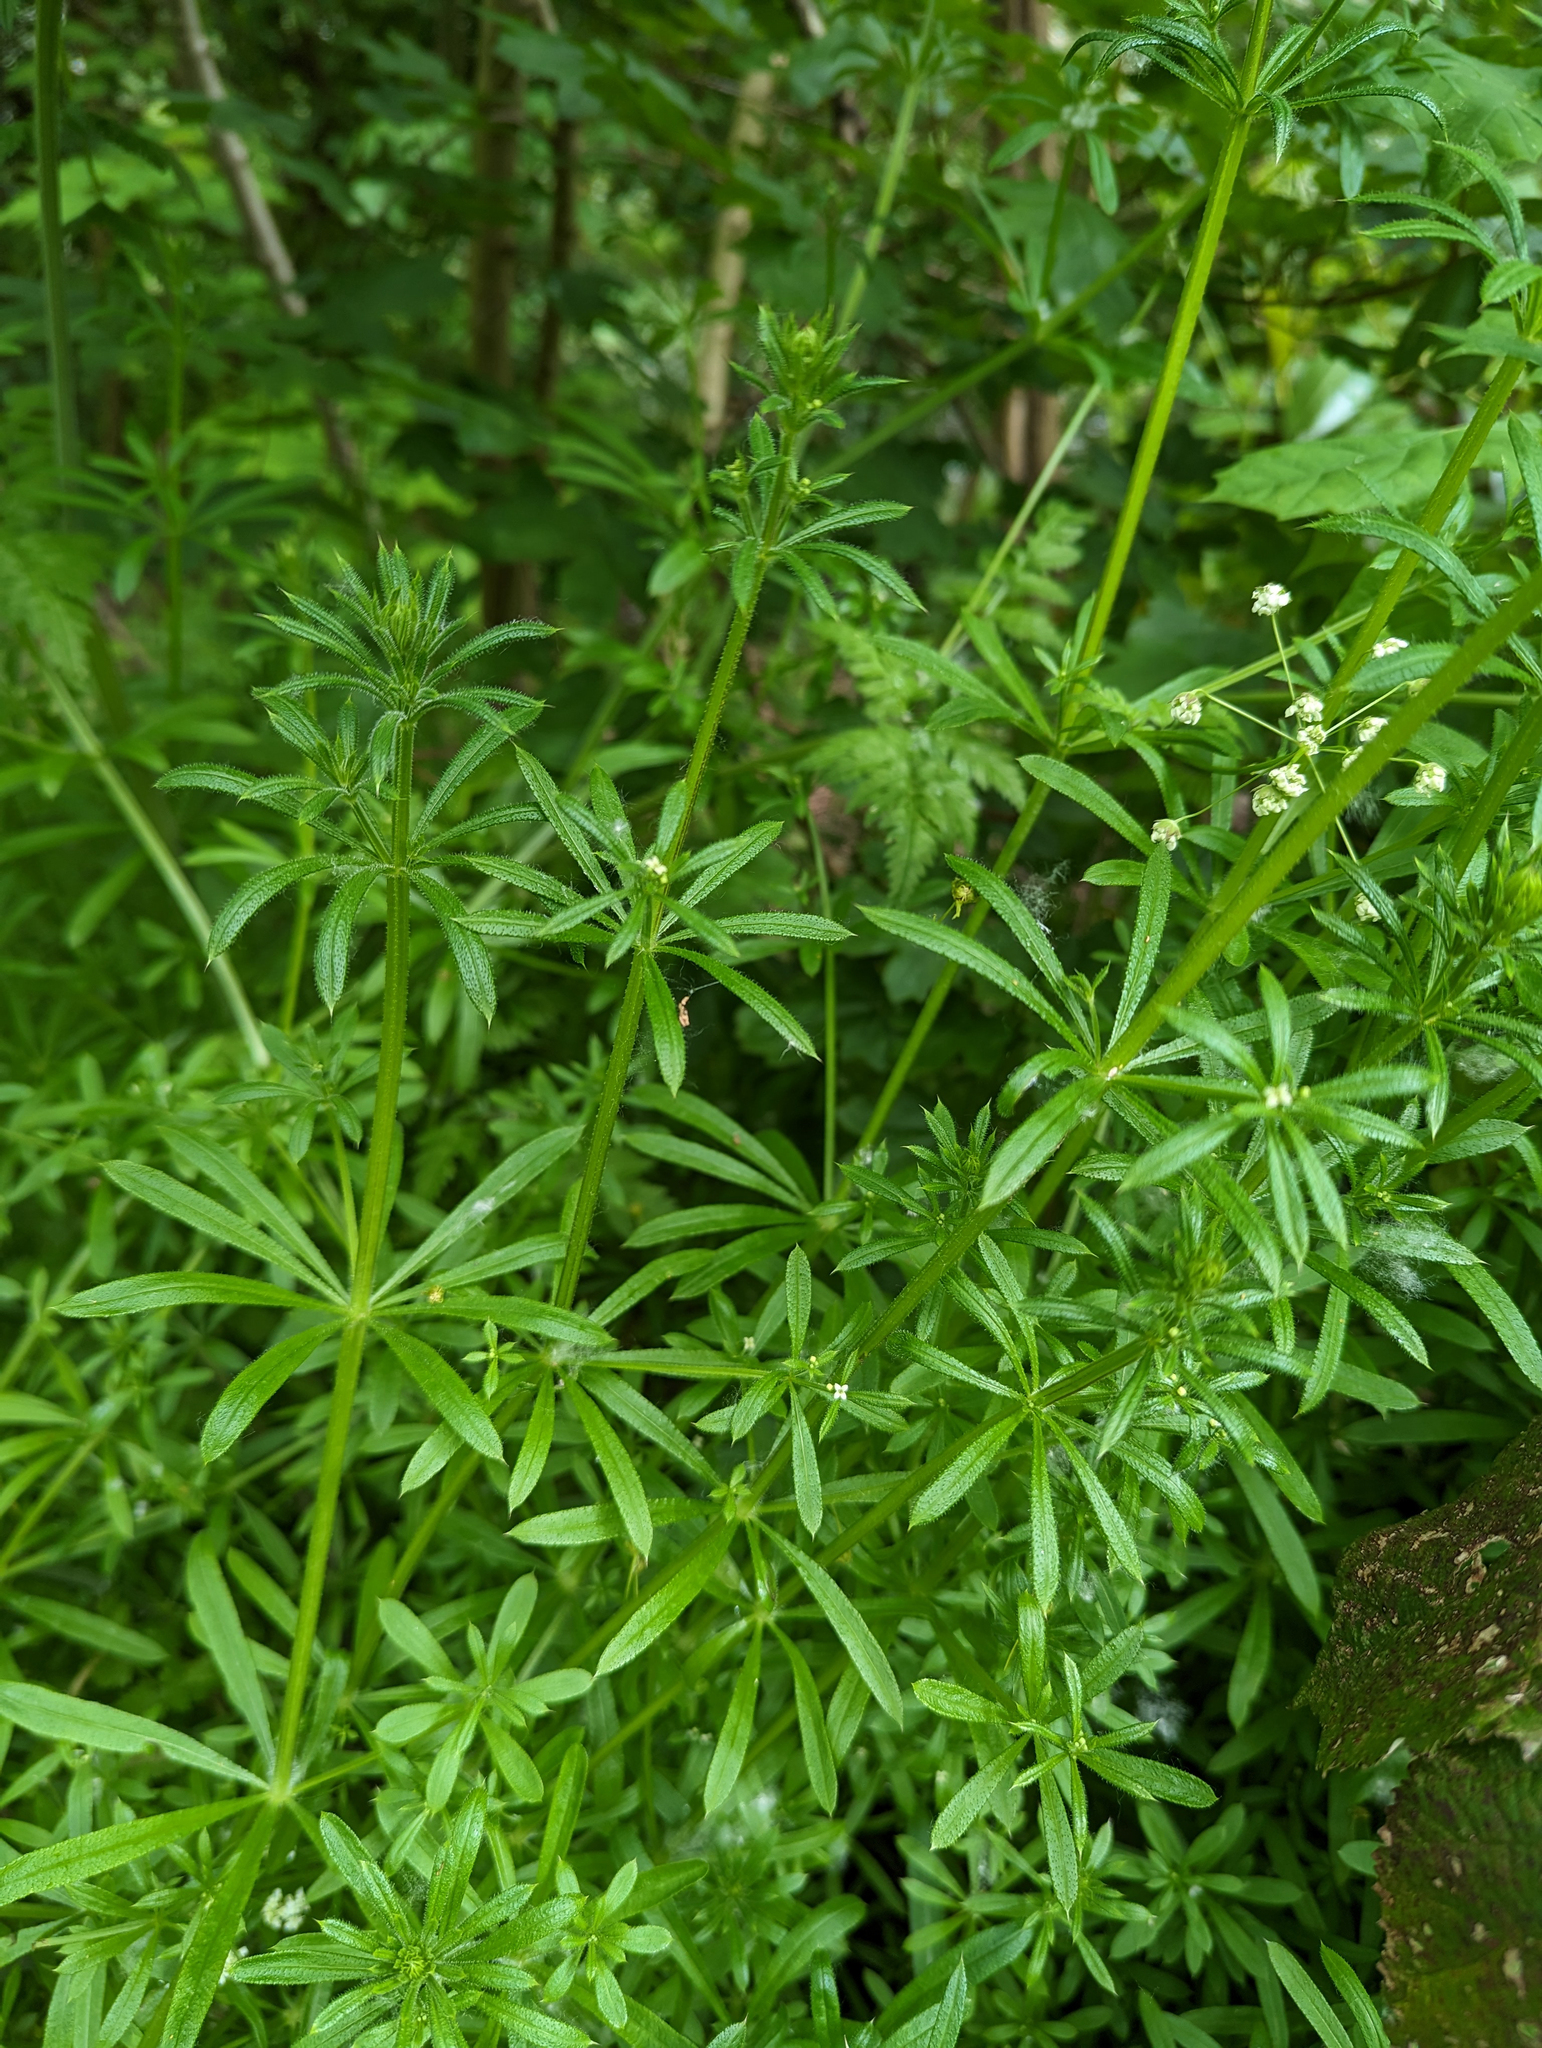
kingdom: Plantae
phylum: Tracheophyta
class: Magnoliopsida
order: Gentianales
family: Rubiaceae
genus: Galium
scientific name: Galium aparine
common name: Cleavers
